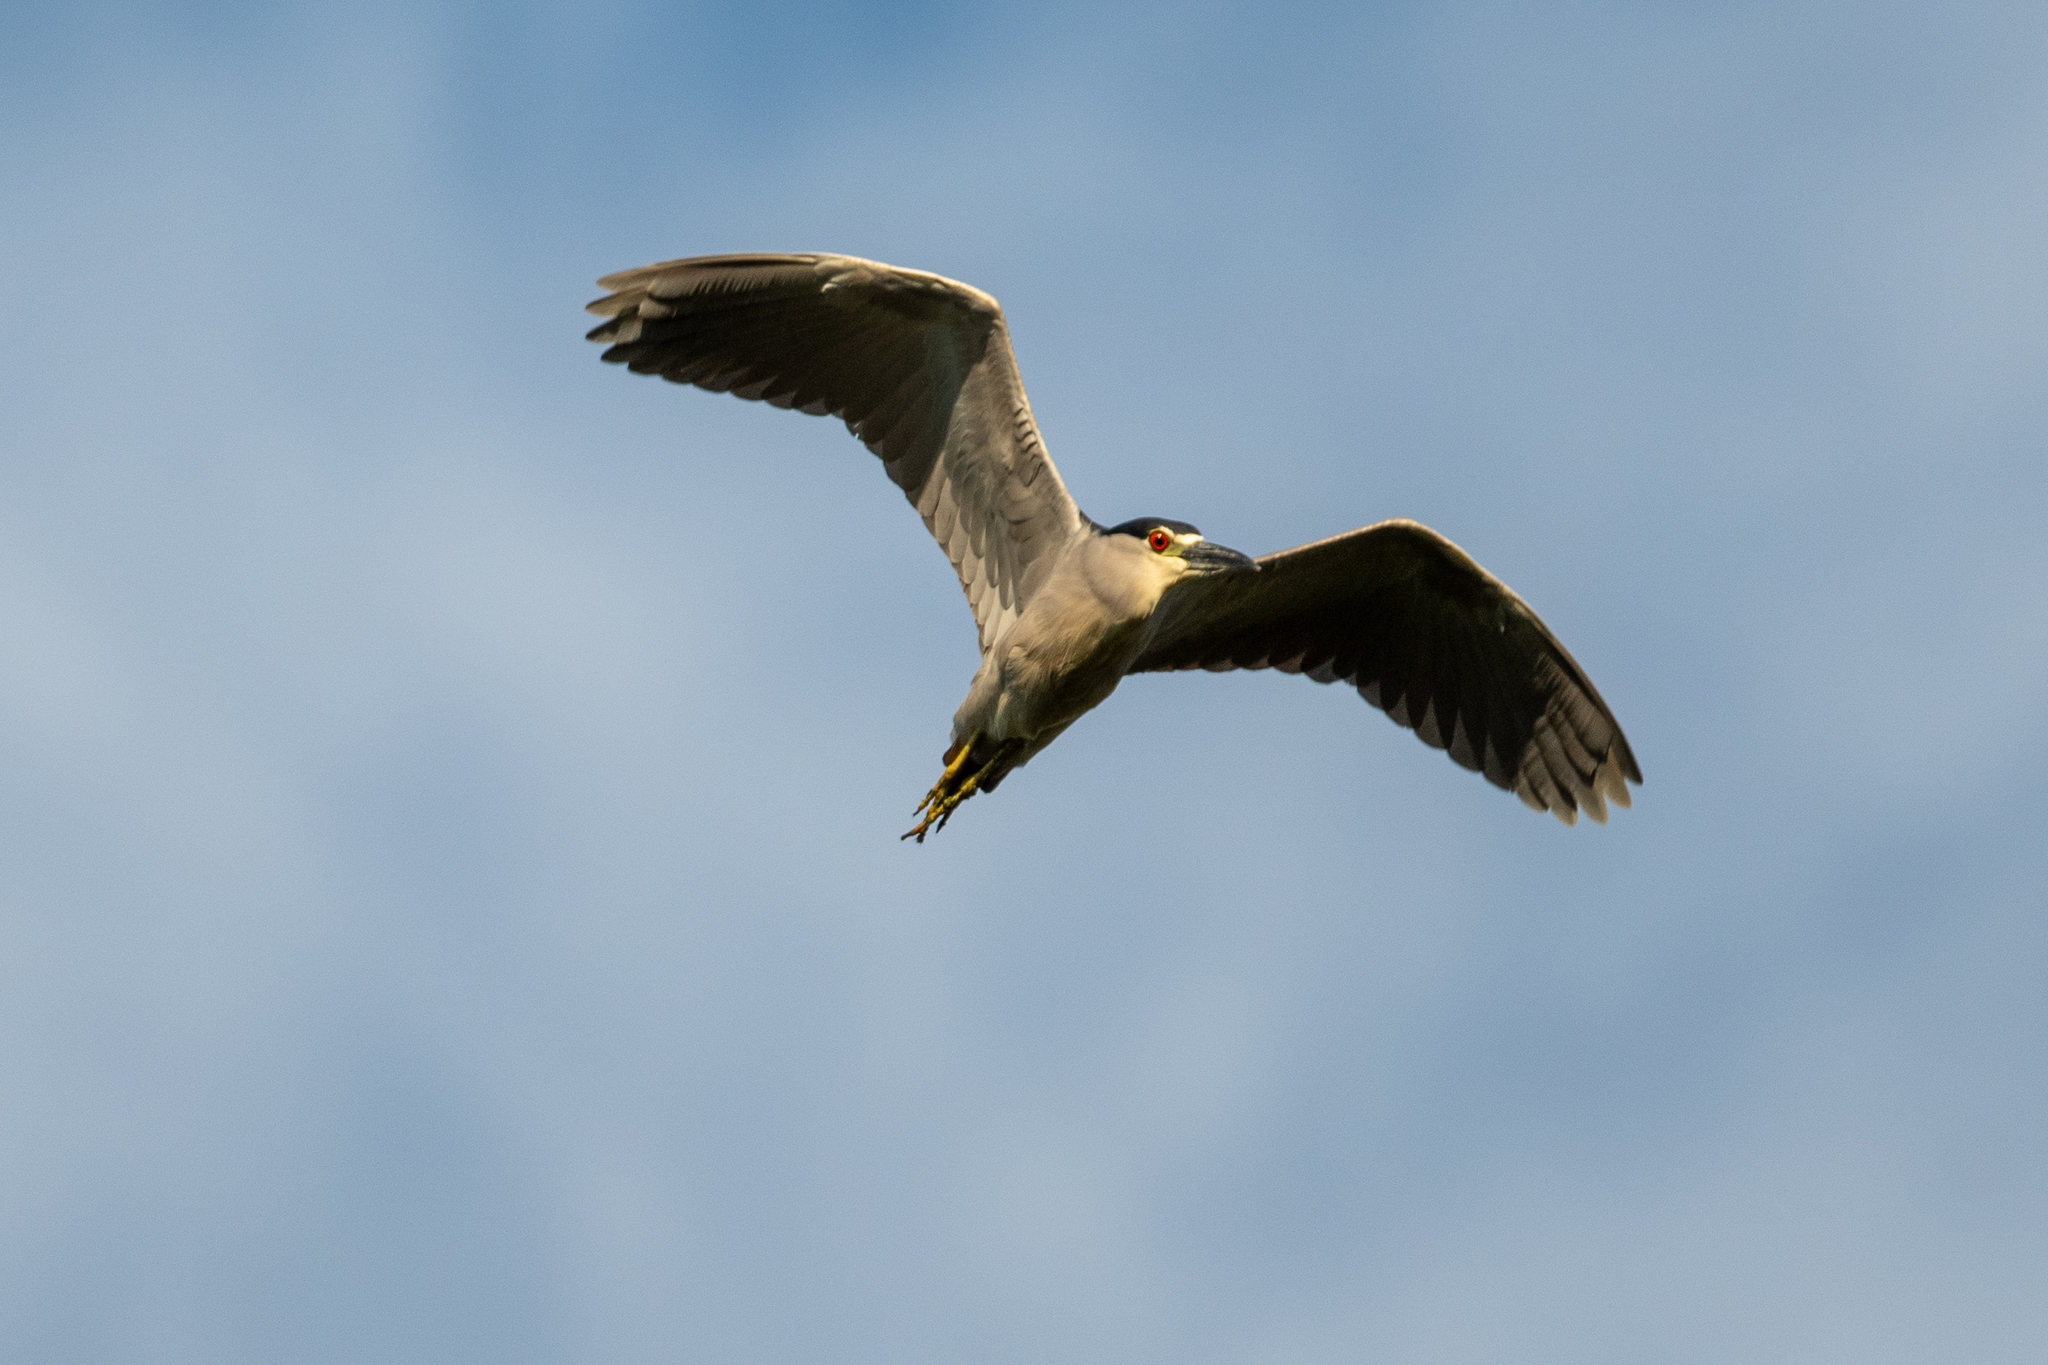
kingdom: Animalia
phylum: Chordata
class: Aves
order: Pelecaniformes
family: Ardeidae
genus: Nycticorax
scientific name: Nycticorax nycticorax
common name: Black-crowned night heron
